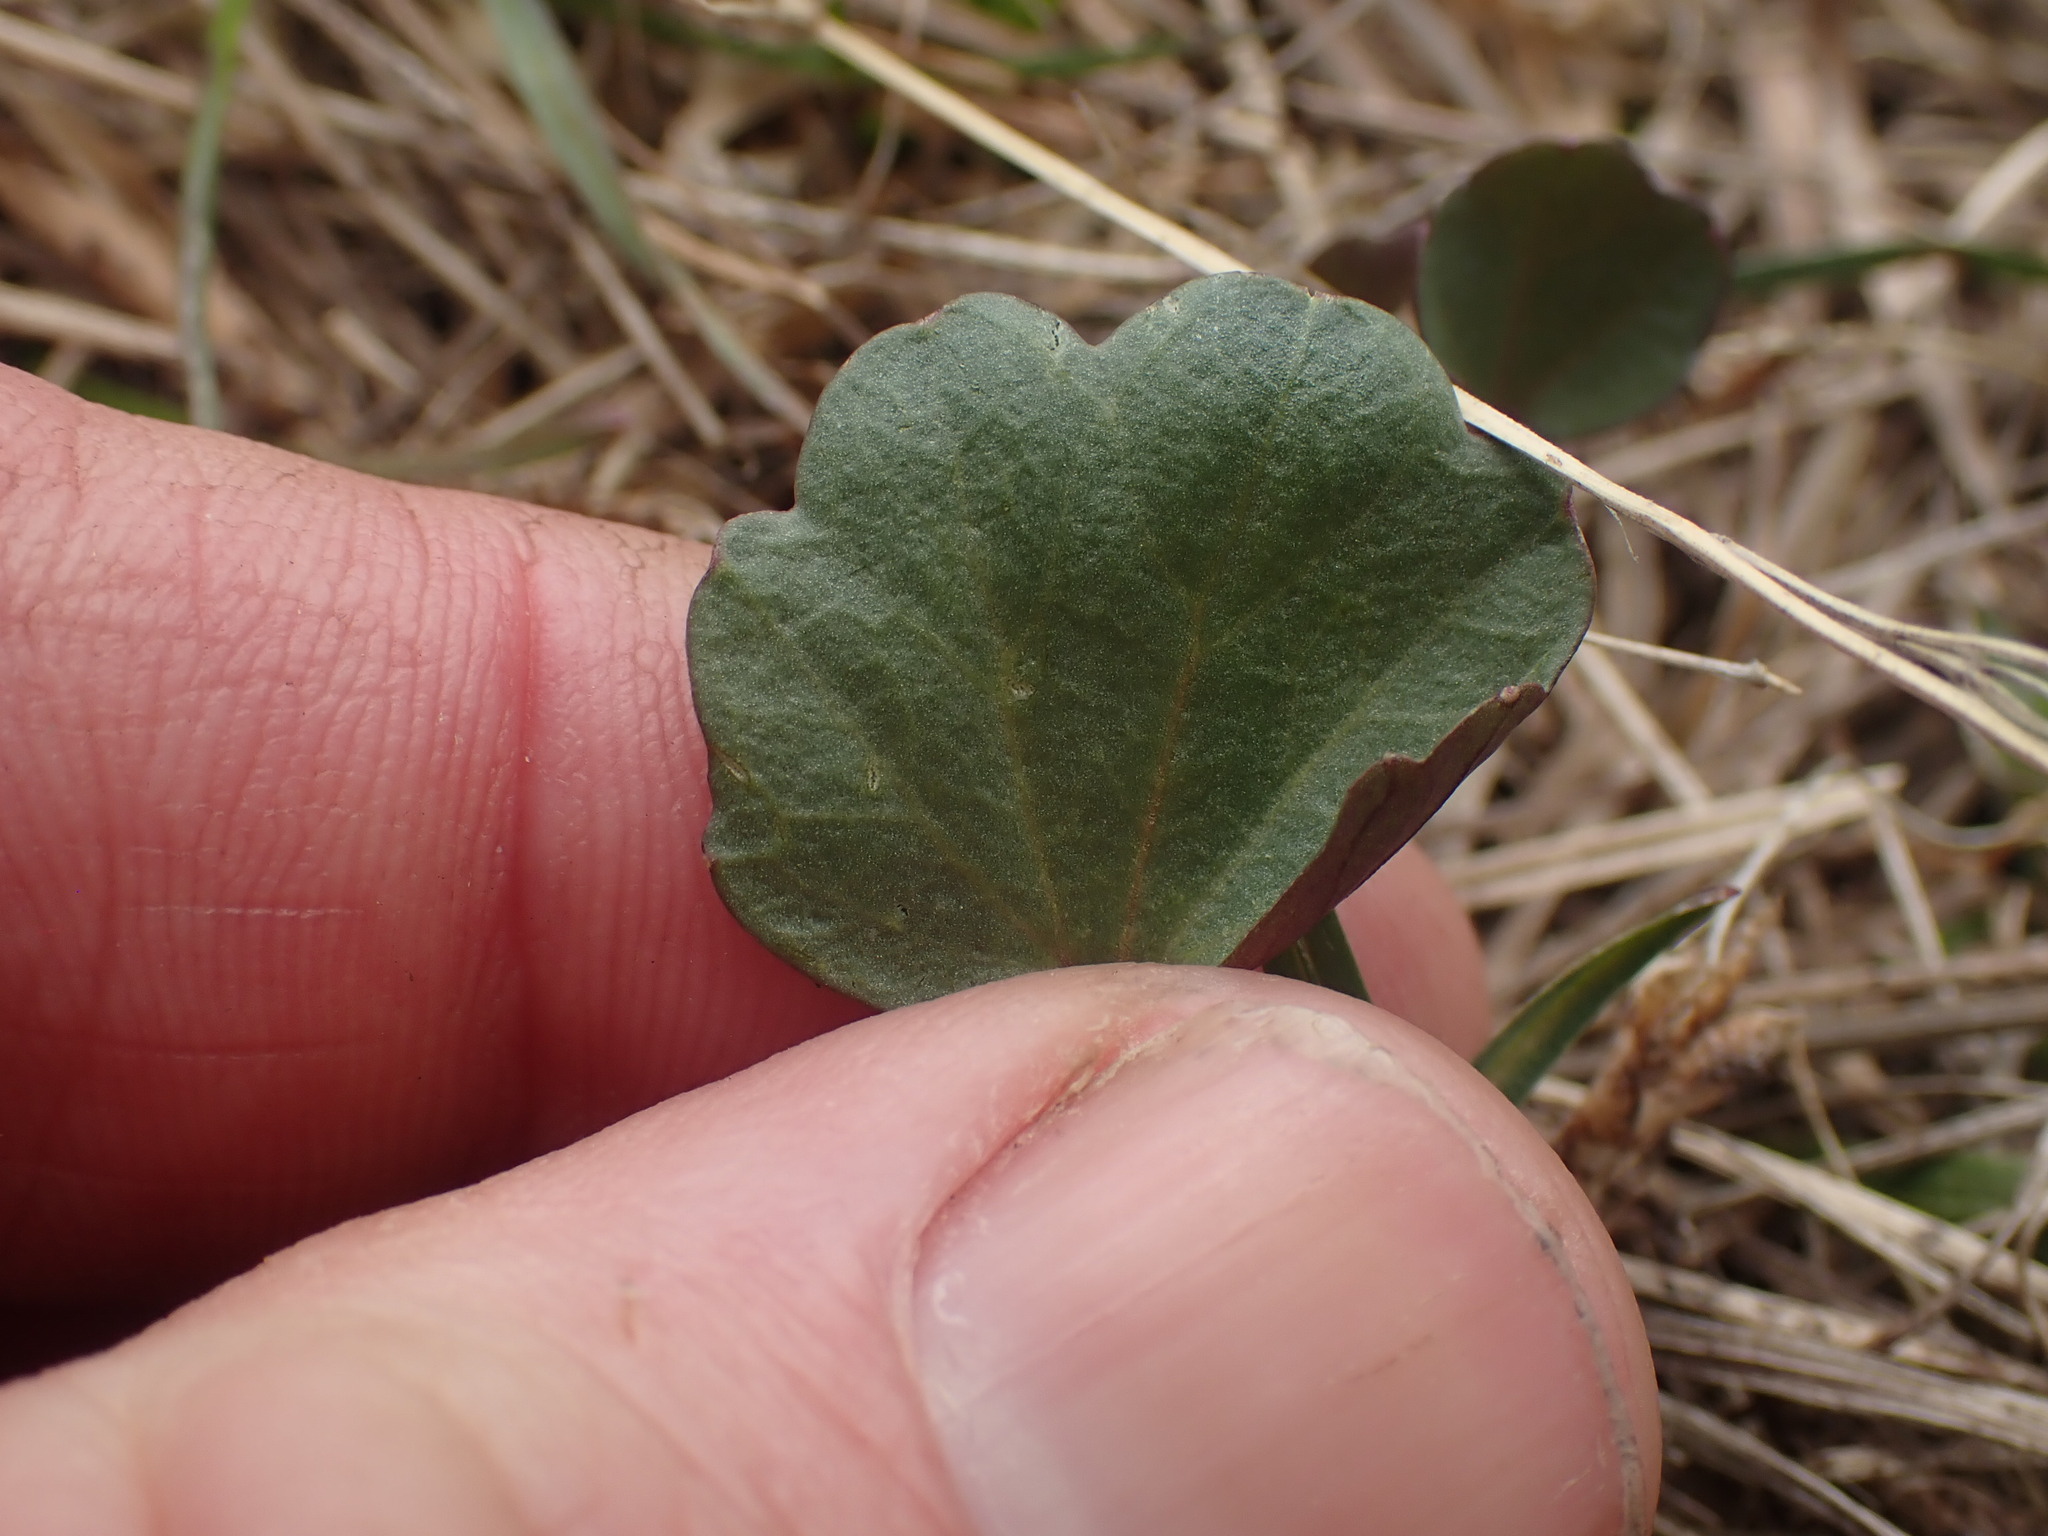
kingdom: Plantae
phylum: Tracheophyta
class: Magnoliopsida
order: Brassicales
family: Brassicaceae
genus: Cardamine
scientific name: Cardamine nuttallii
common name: Nuttall's toothwort
